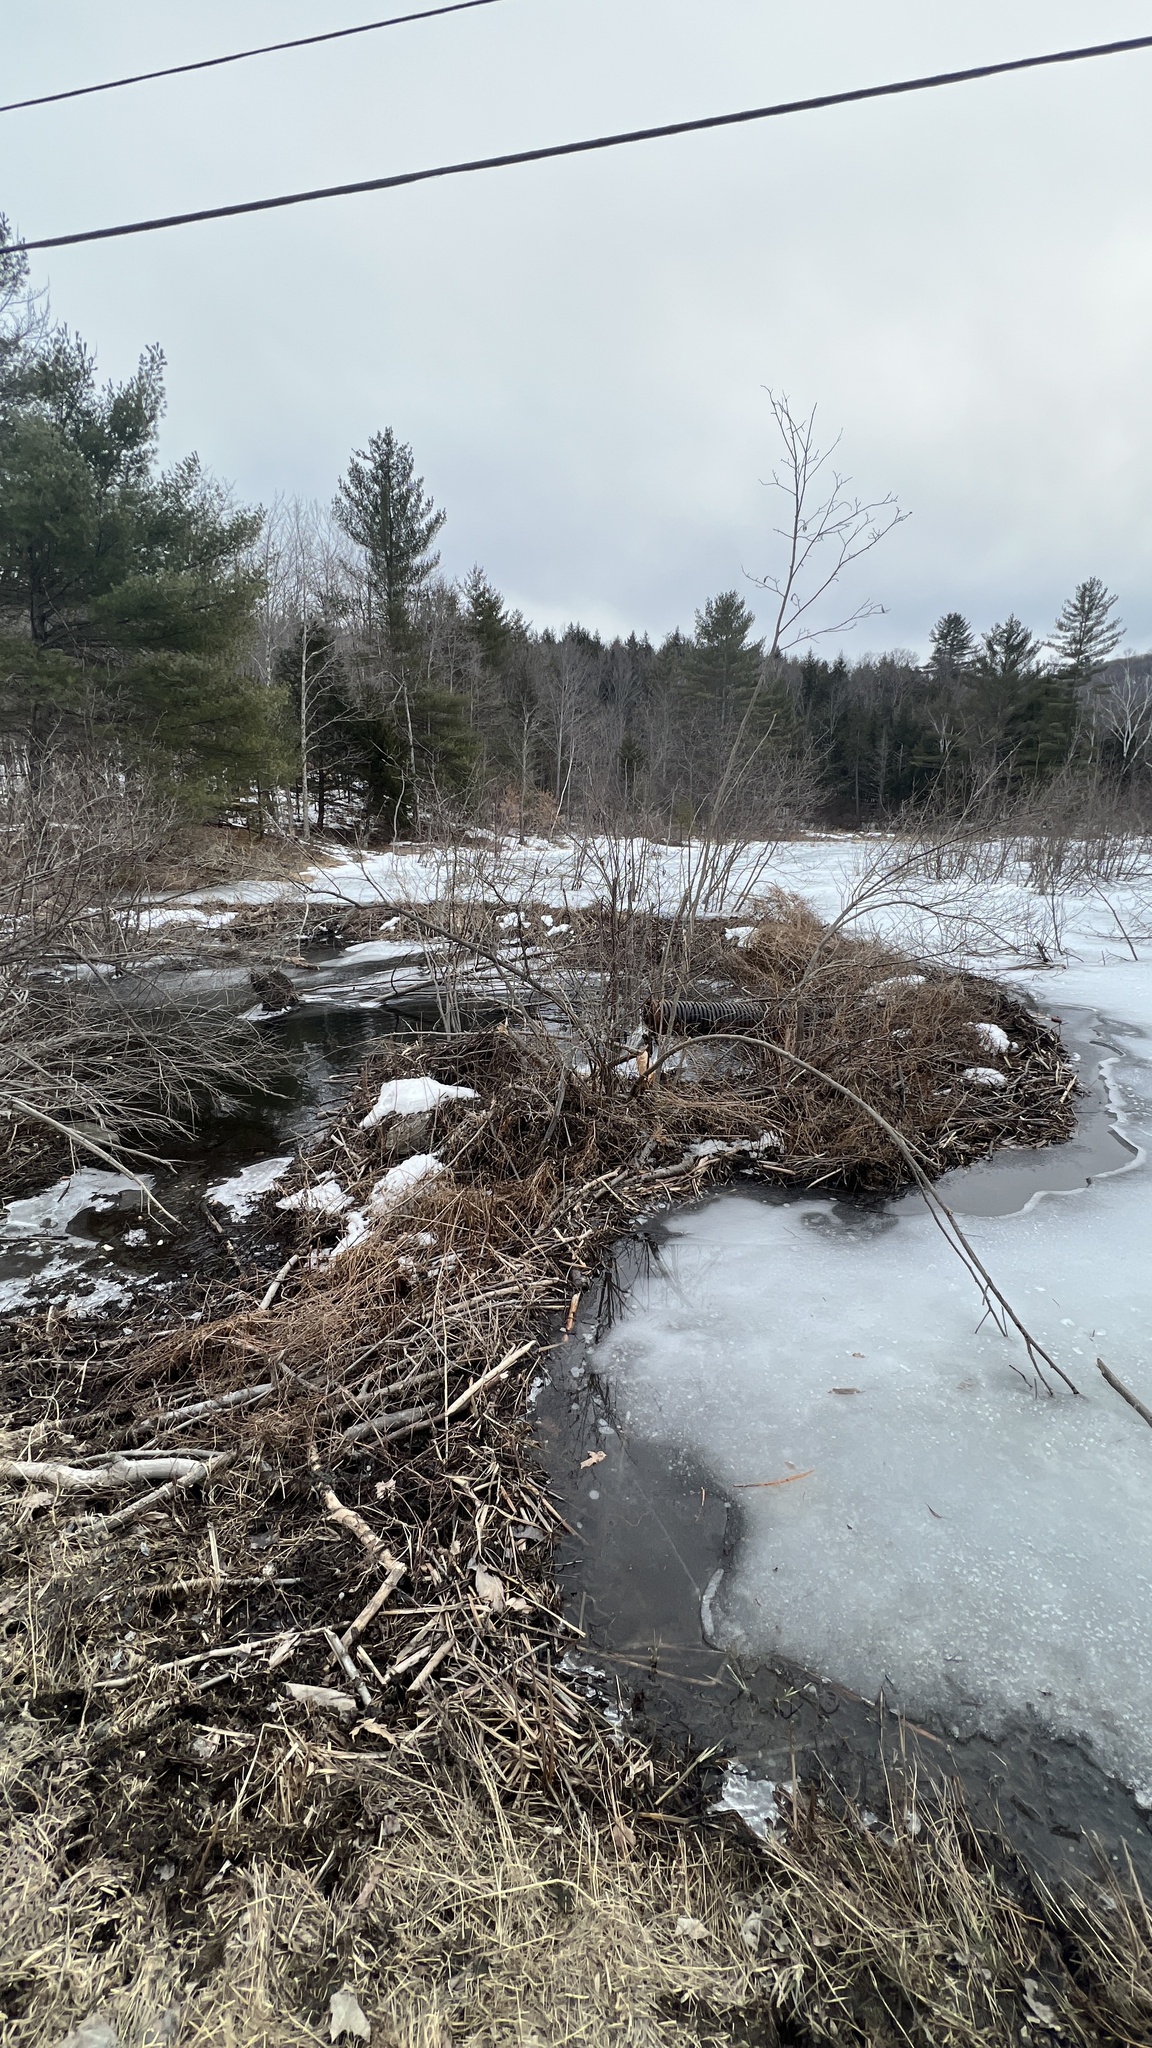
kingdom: Animalia
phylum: Chordata
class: Mammalia
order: Rodentia
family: Castoridae
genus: Castor
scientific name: Castor canadensis
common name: American beaver
